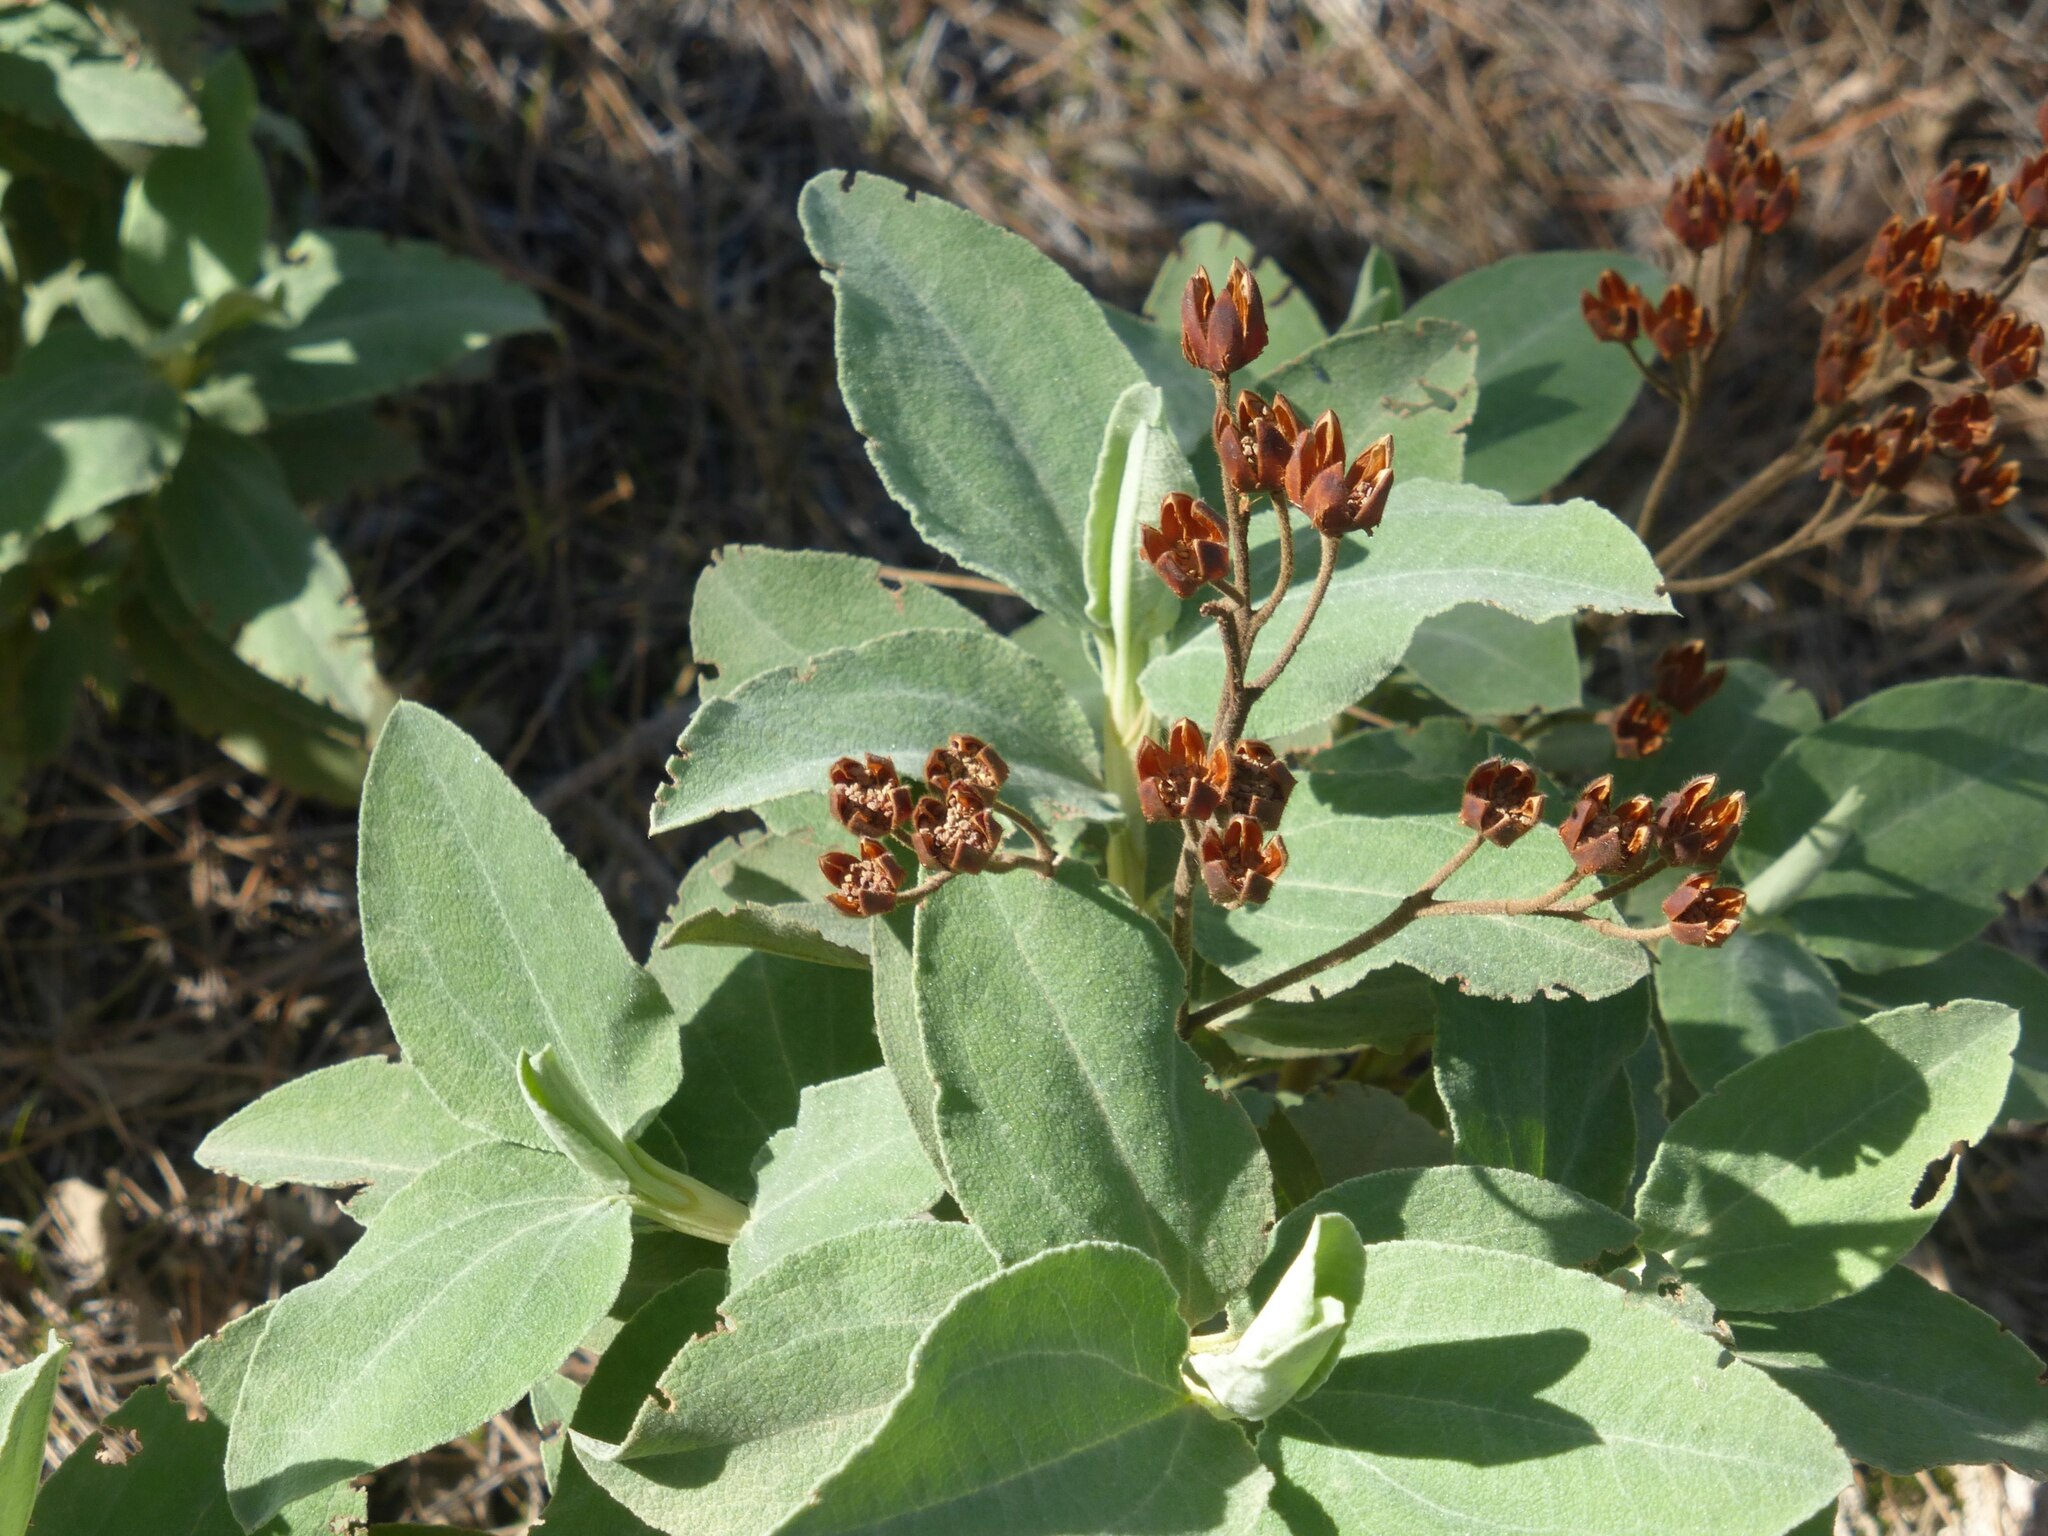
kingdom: Plantae
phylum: Tracheophyta
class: Magnoliopsida
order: Malvales
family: Cistaceae
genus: Cistus
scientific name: Cistus ocreatus
